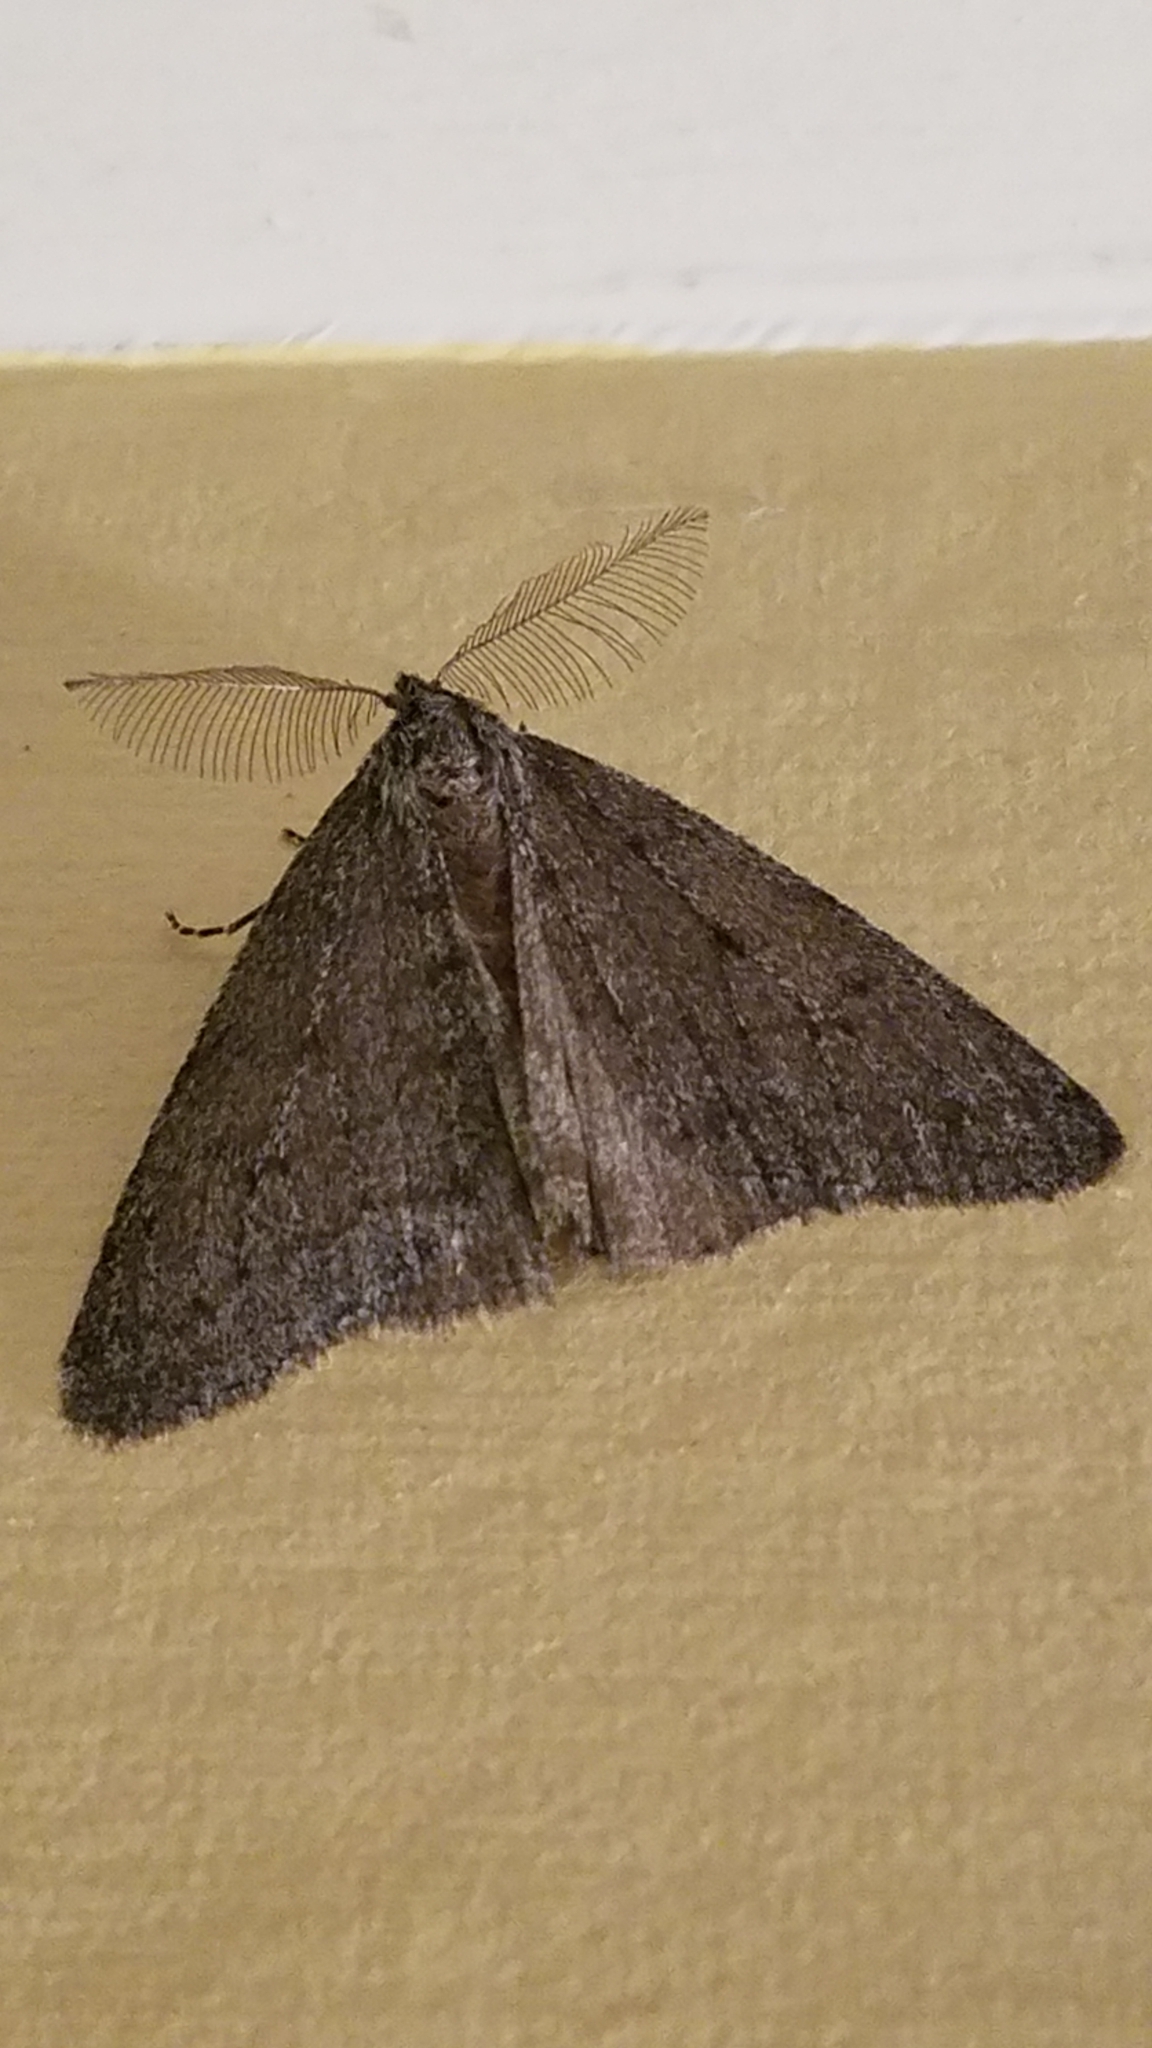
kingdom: Animalia
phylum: Arthropoda
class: Insecta
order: Lepidoptera
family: Geometridae
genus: Phigalia
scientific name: Phigalia plumogeraria
